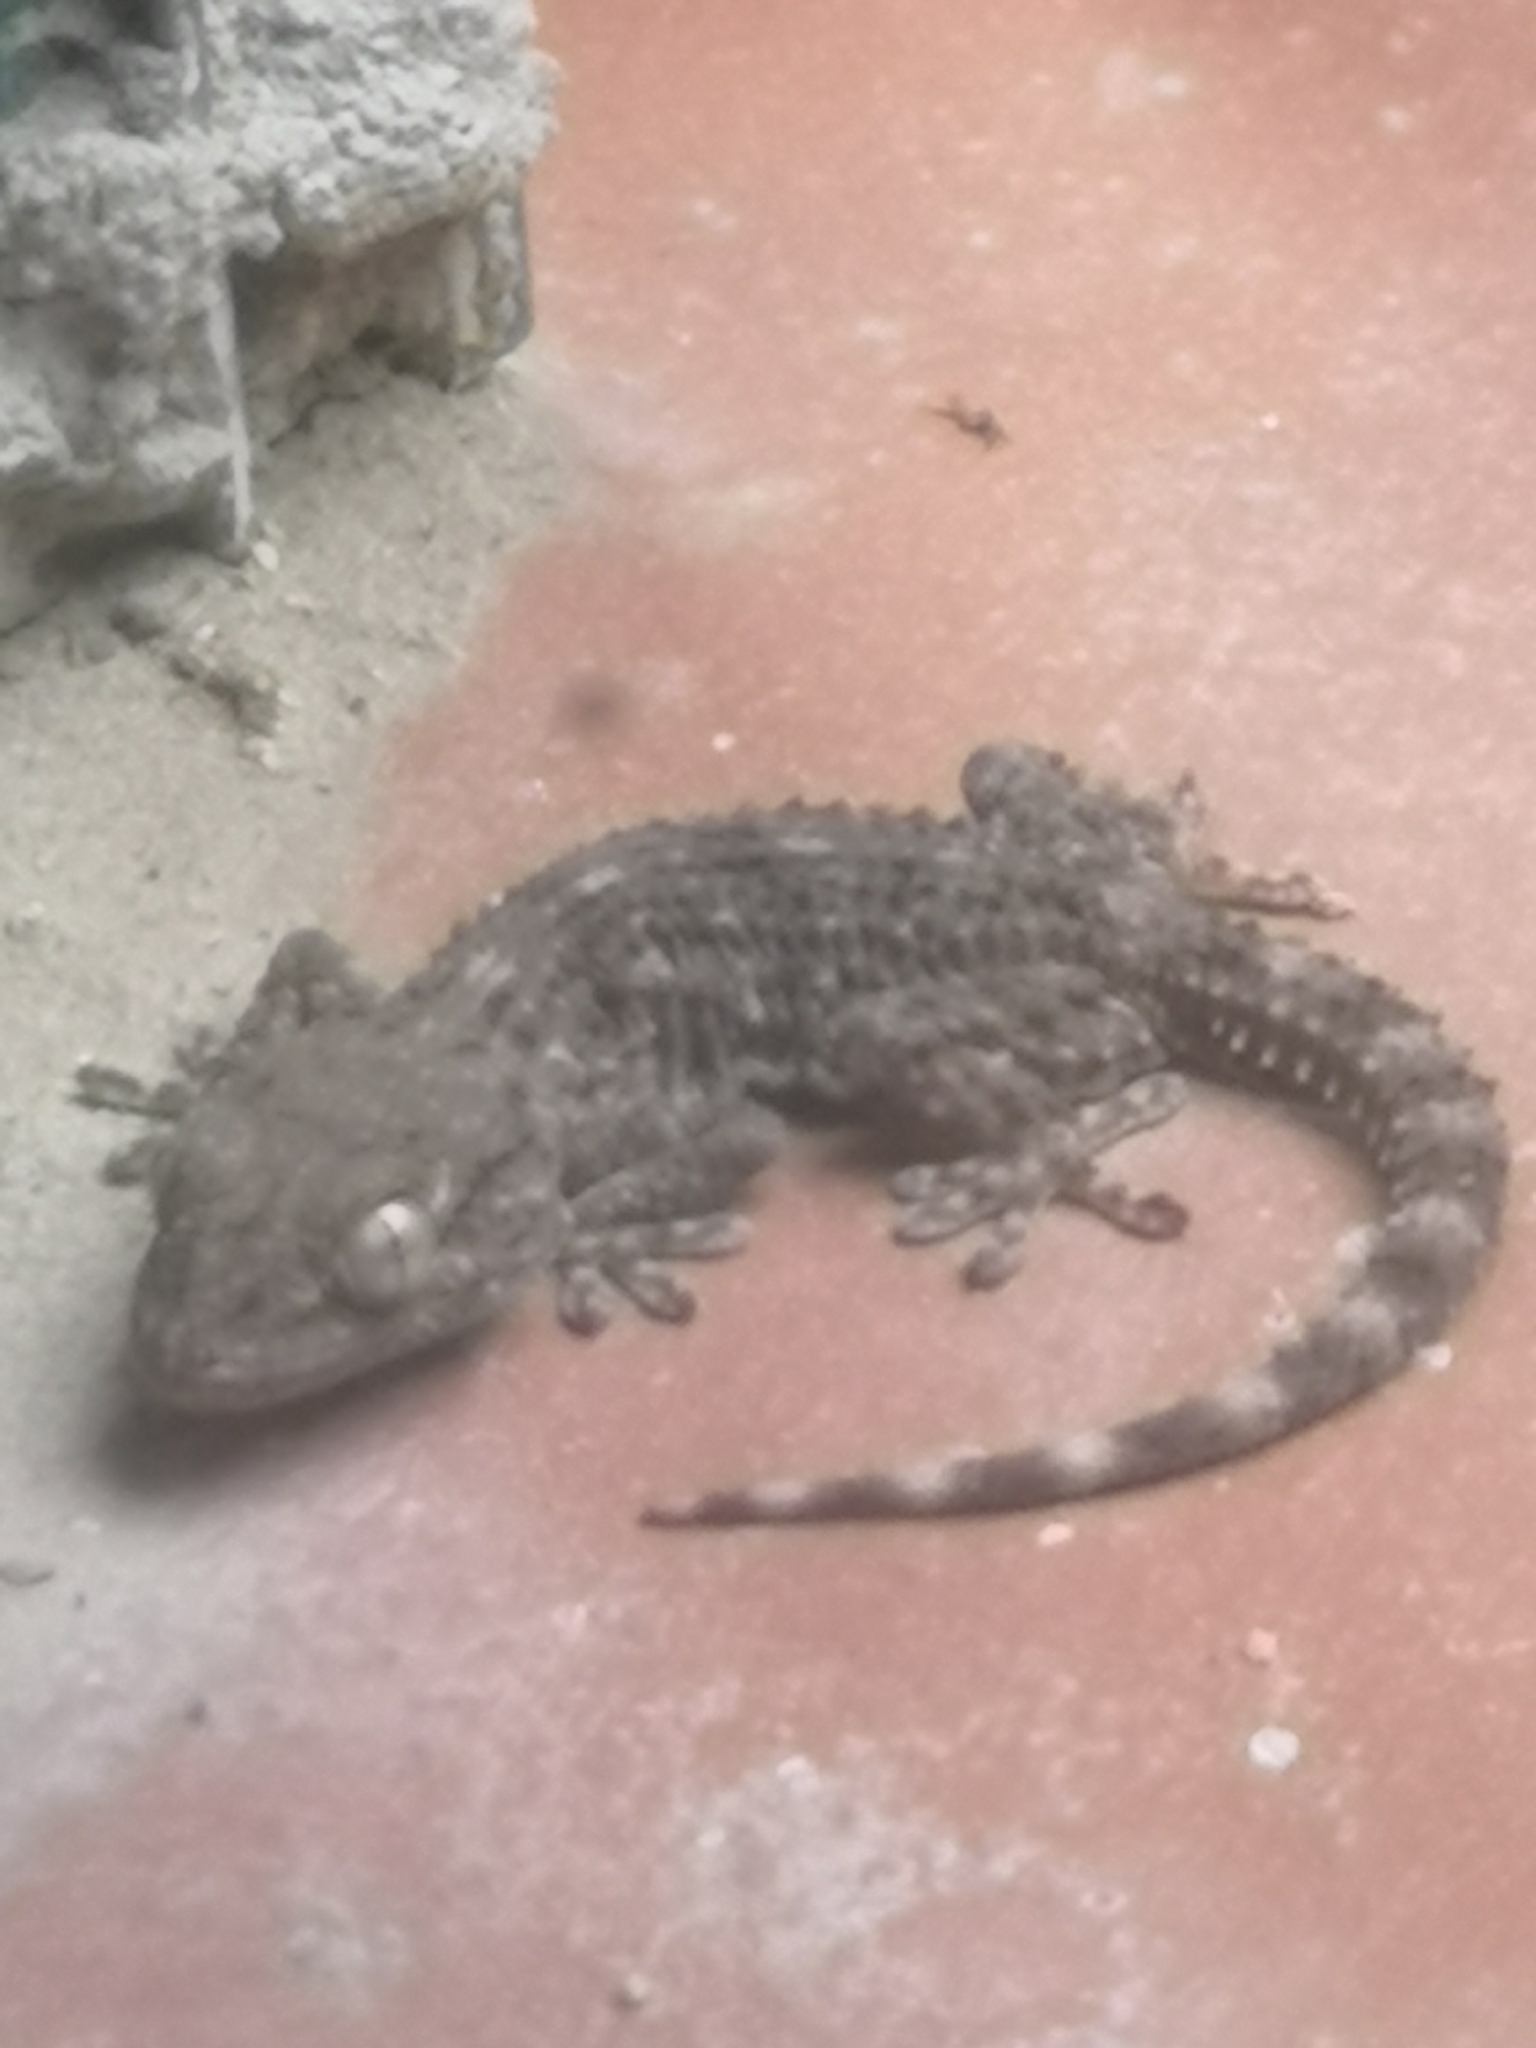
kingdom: Animalia
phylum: Chordata
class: Squamata
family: Phyllodactylidae
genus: Tarentola
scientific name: Tarentola mauritanica
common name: Moorish gecko
